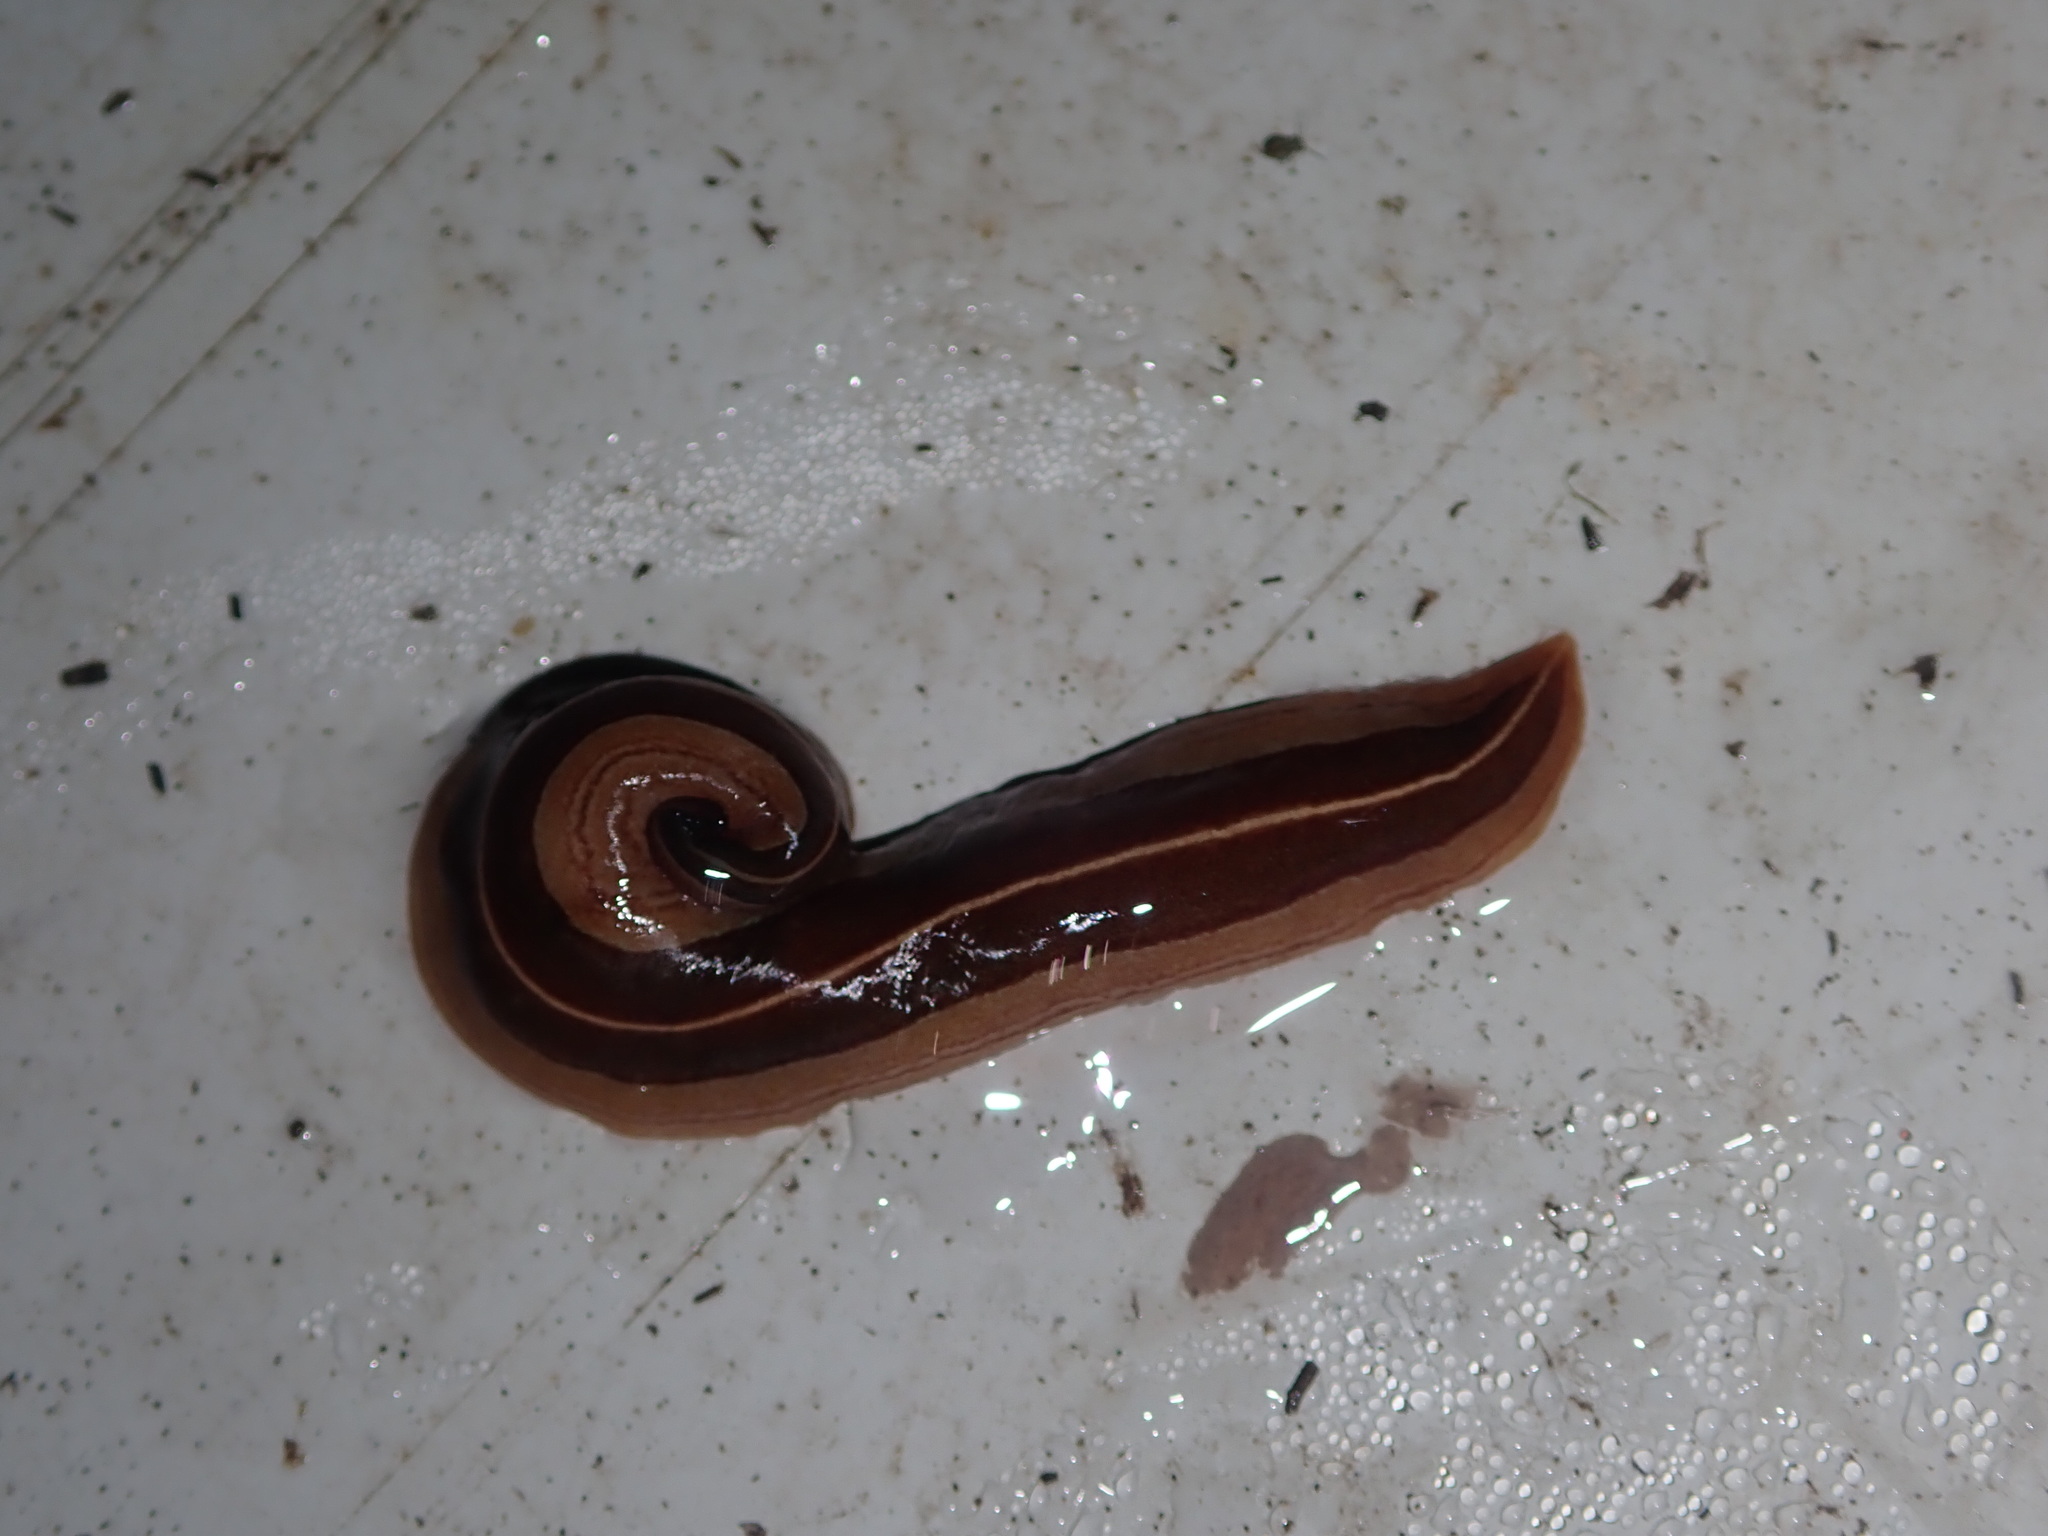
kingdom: Animalia
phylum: Platyhelminthes
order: Tricladida
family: Geoplanidae
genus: Australopacifica
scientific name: Australopacifica scaphoidea
